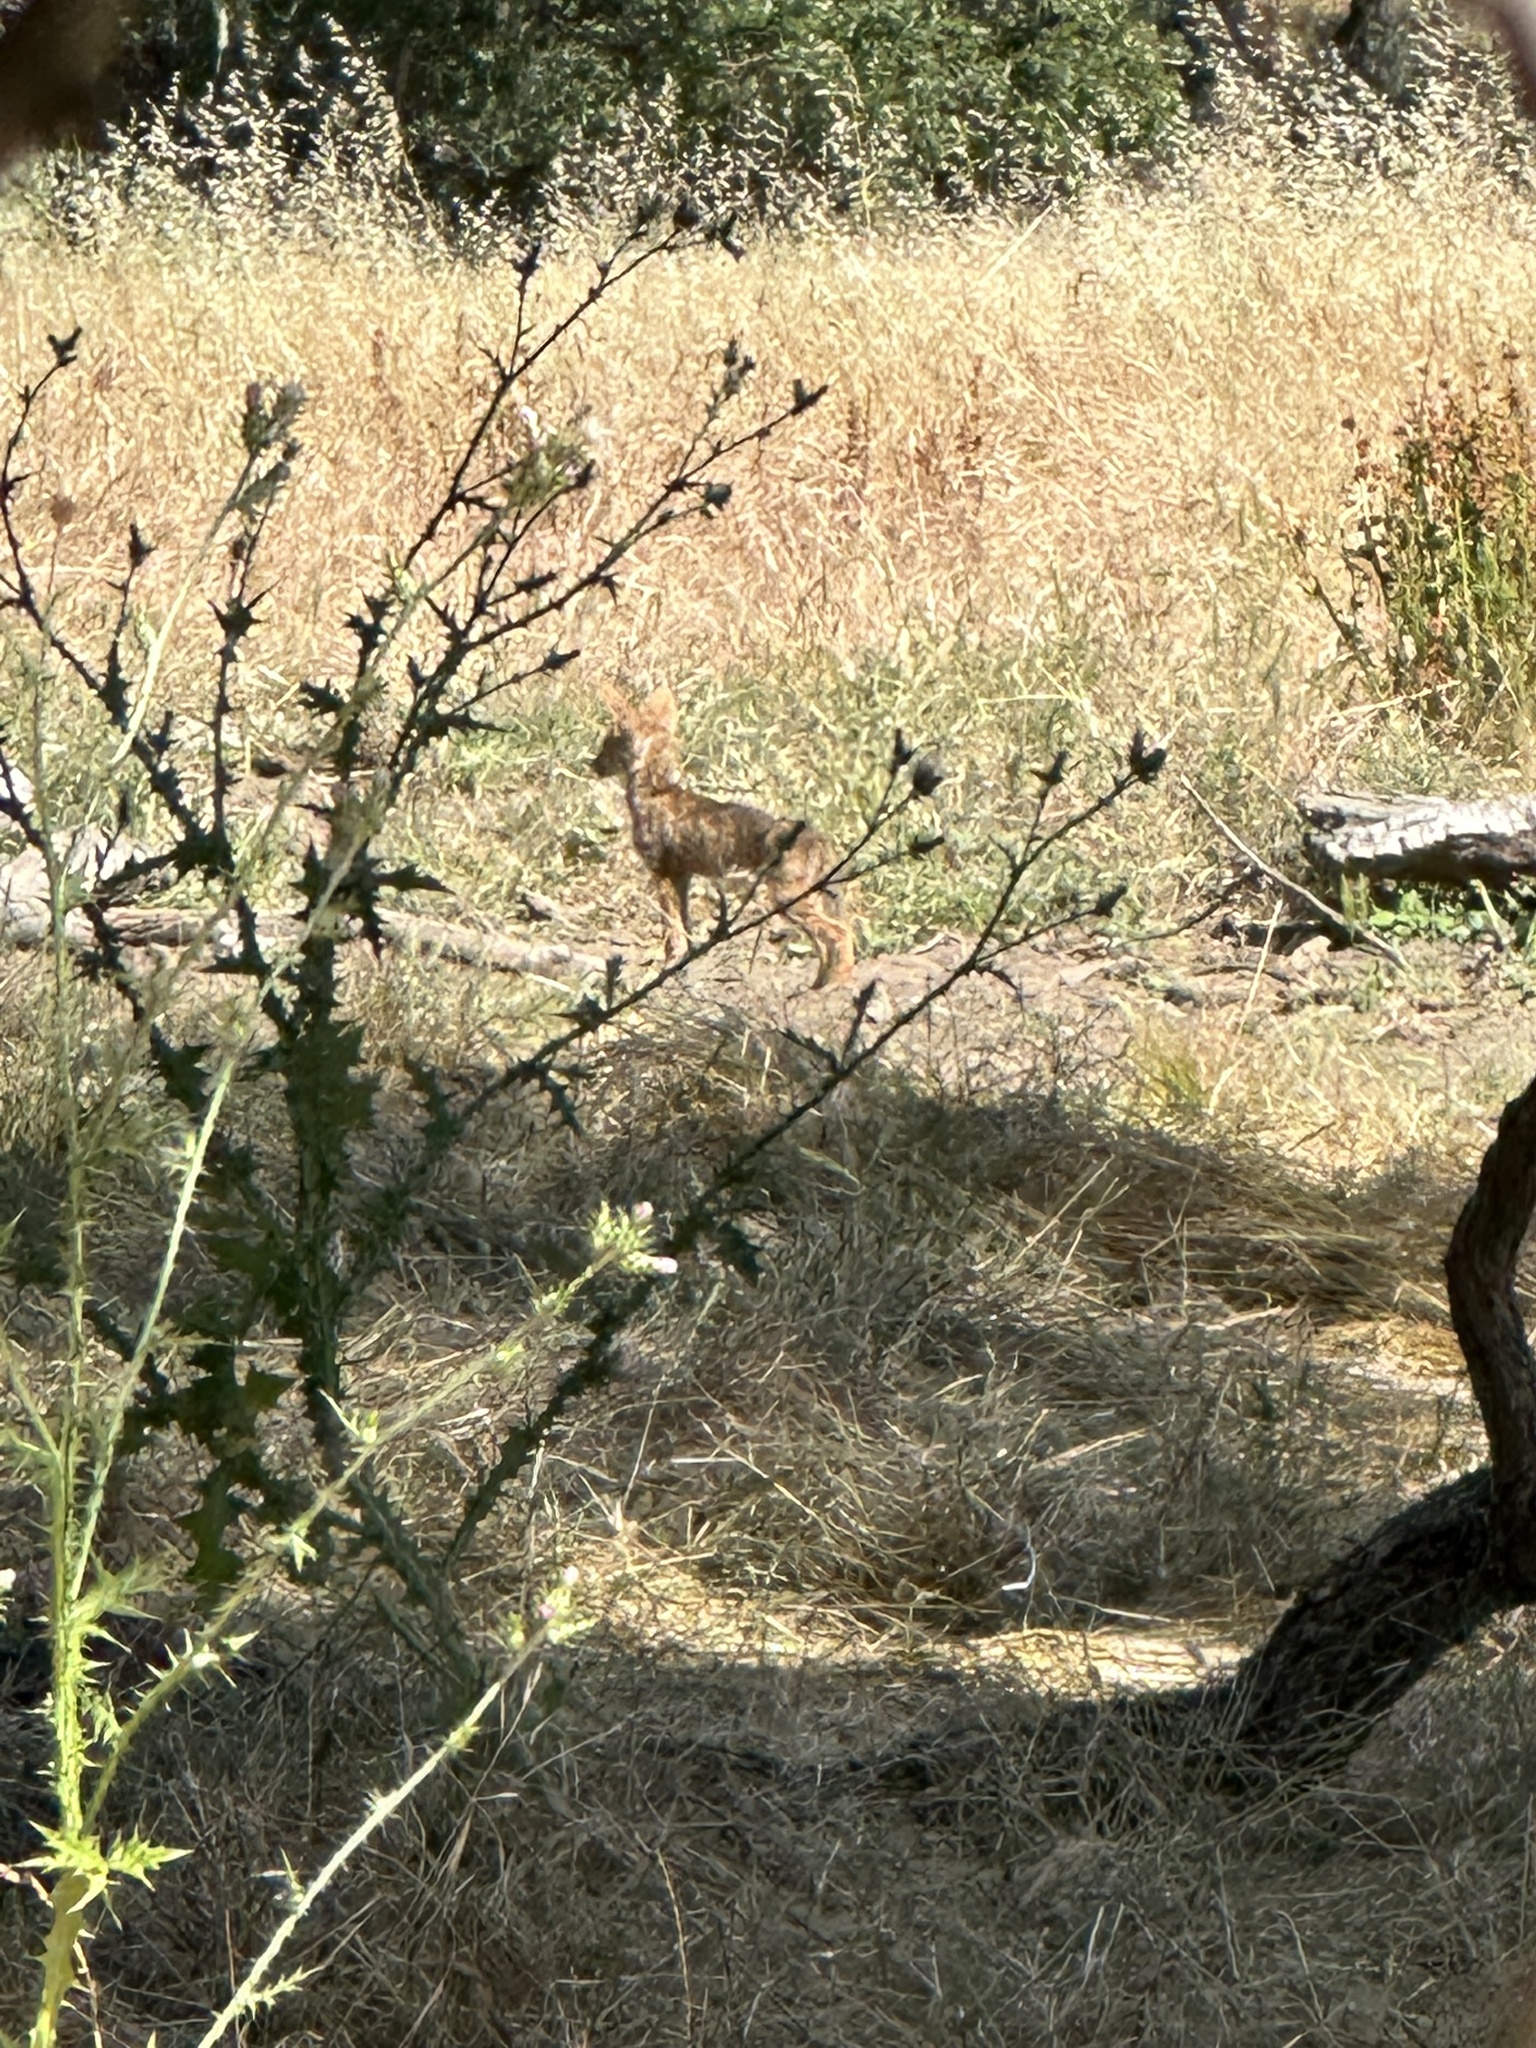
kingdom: Animalia
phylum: Chordata
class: Mammalia
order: Carnivora
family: Canidae
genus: Canis
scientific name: Canis latrans
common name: Coyote
